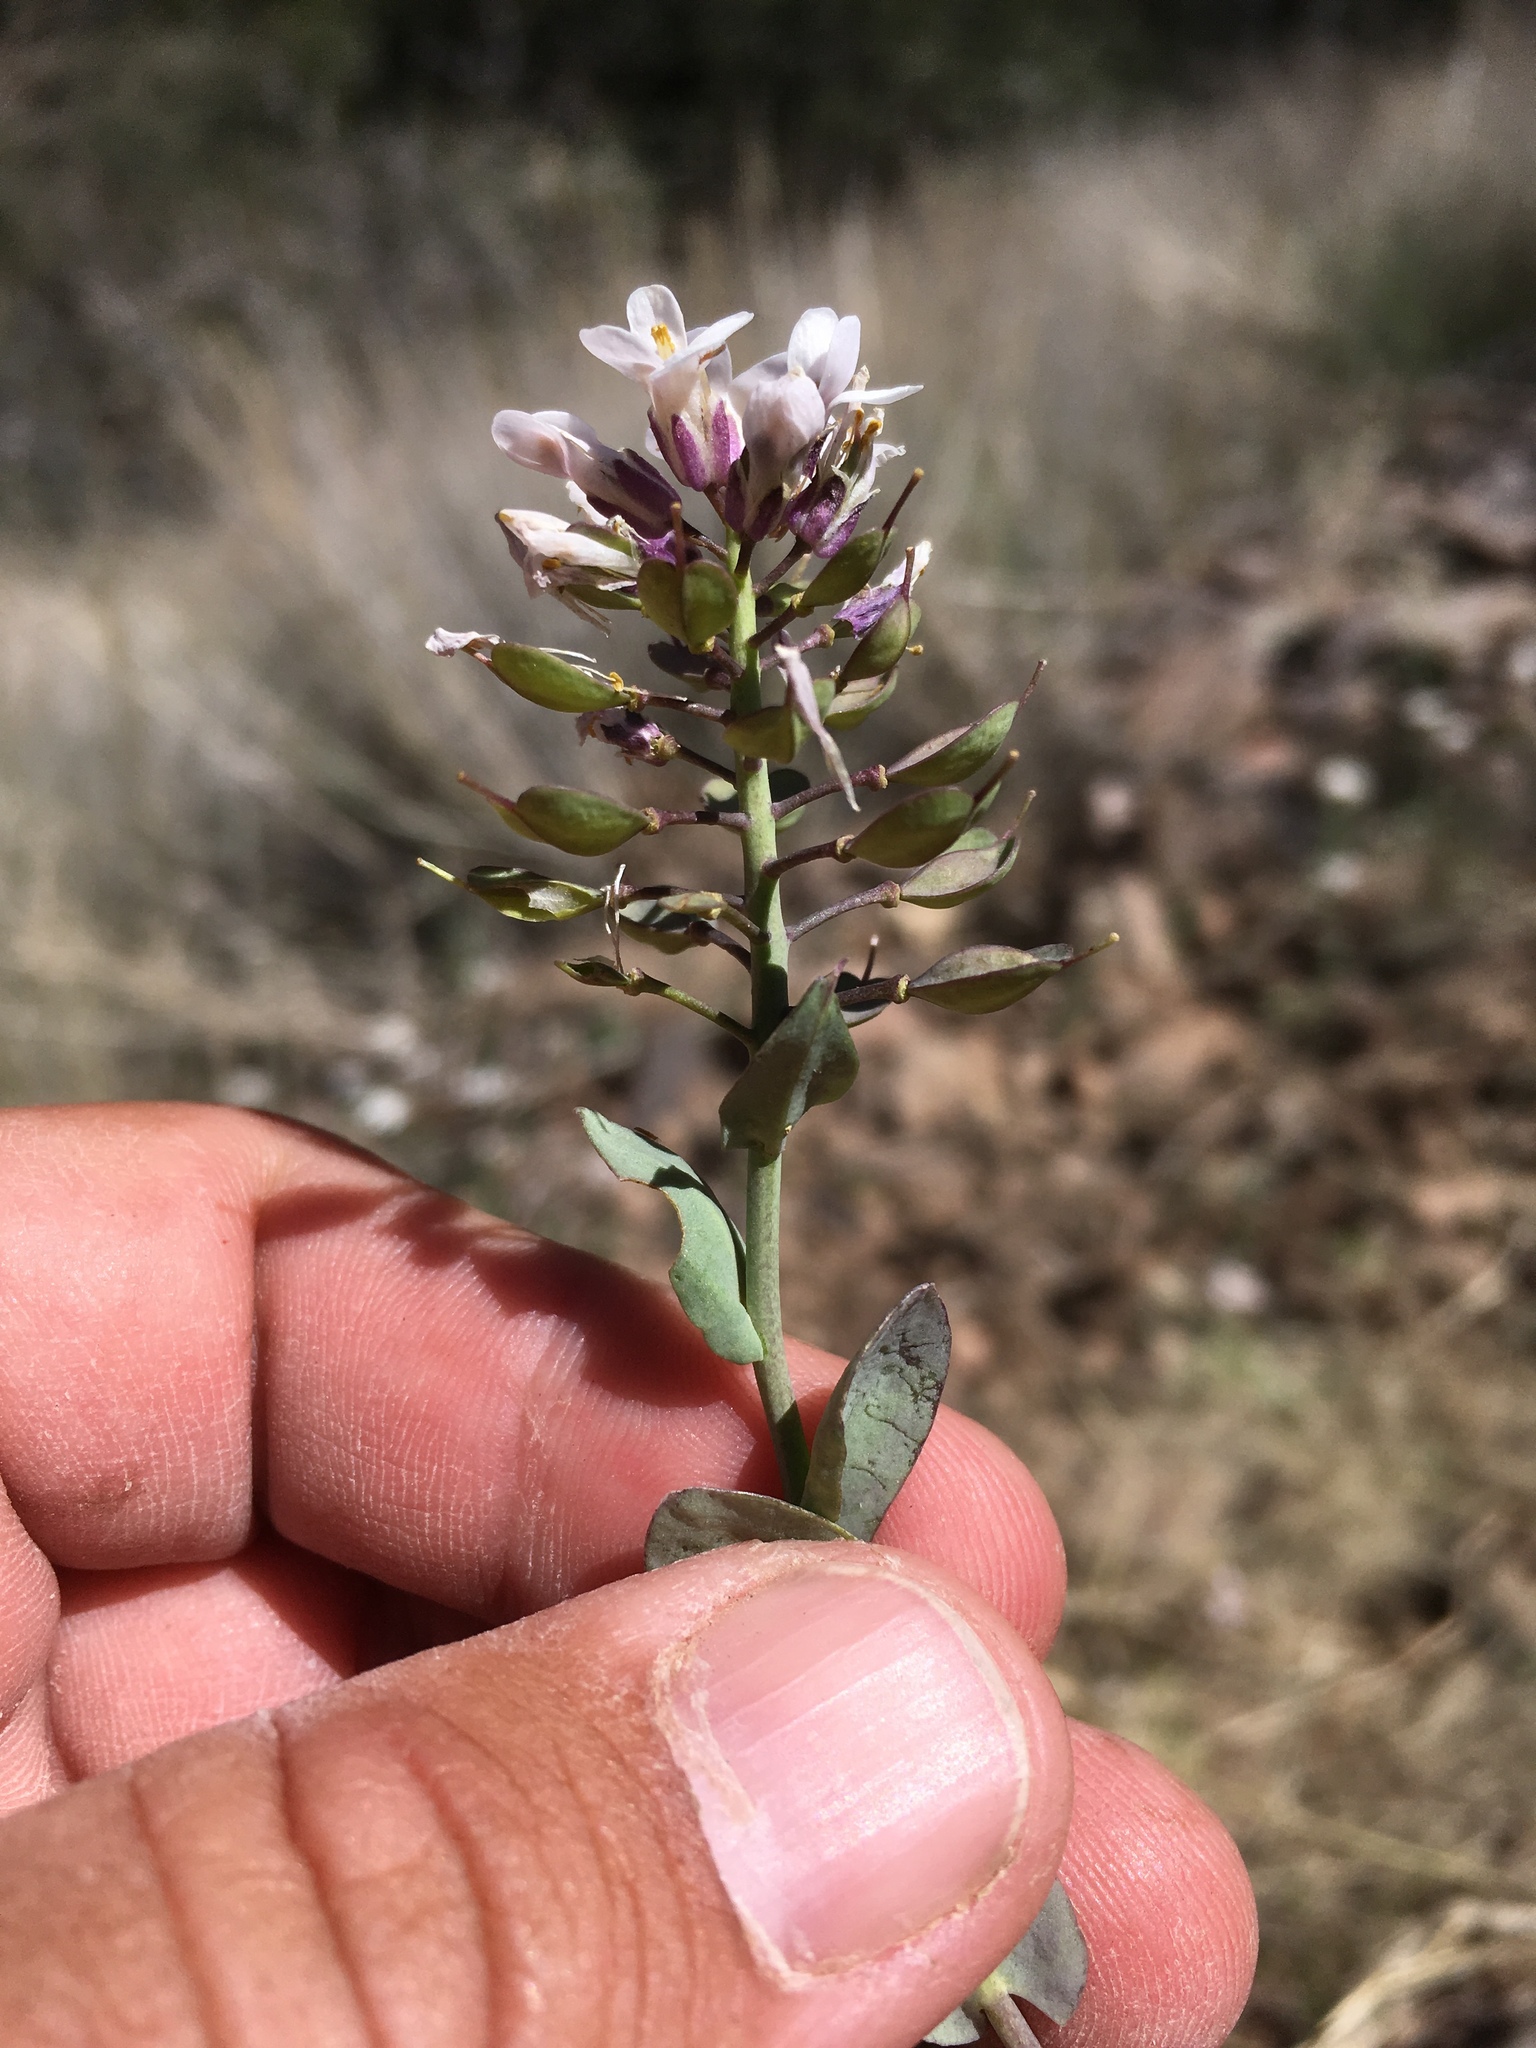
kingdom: Plantae
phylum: Tracheophyta
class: Magnoliopsida
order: Brassicales
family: Brassicaceae
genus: Noccaea
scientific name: Noccaea fendleri
